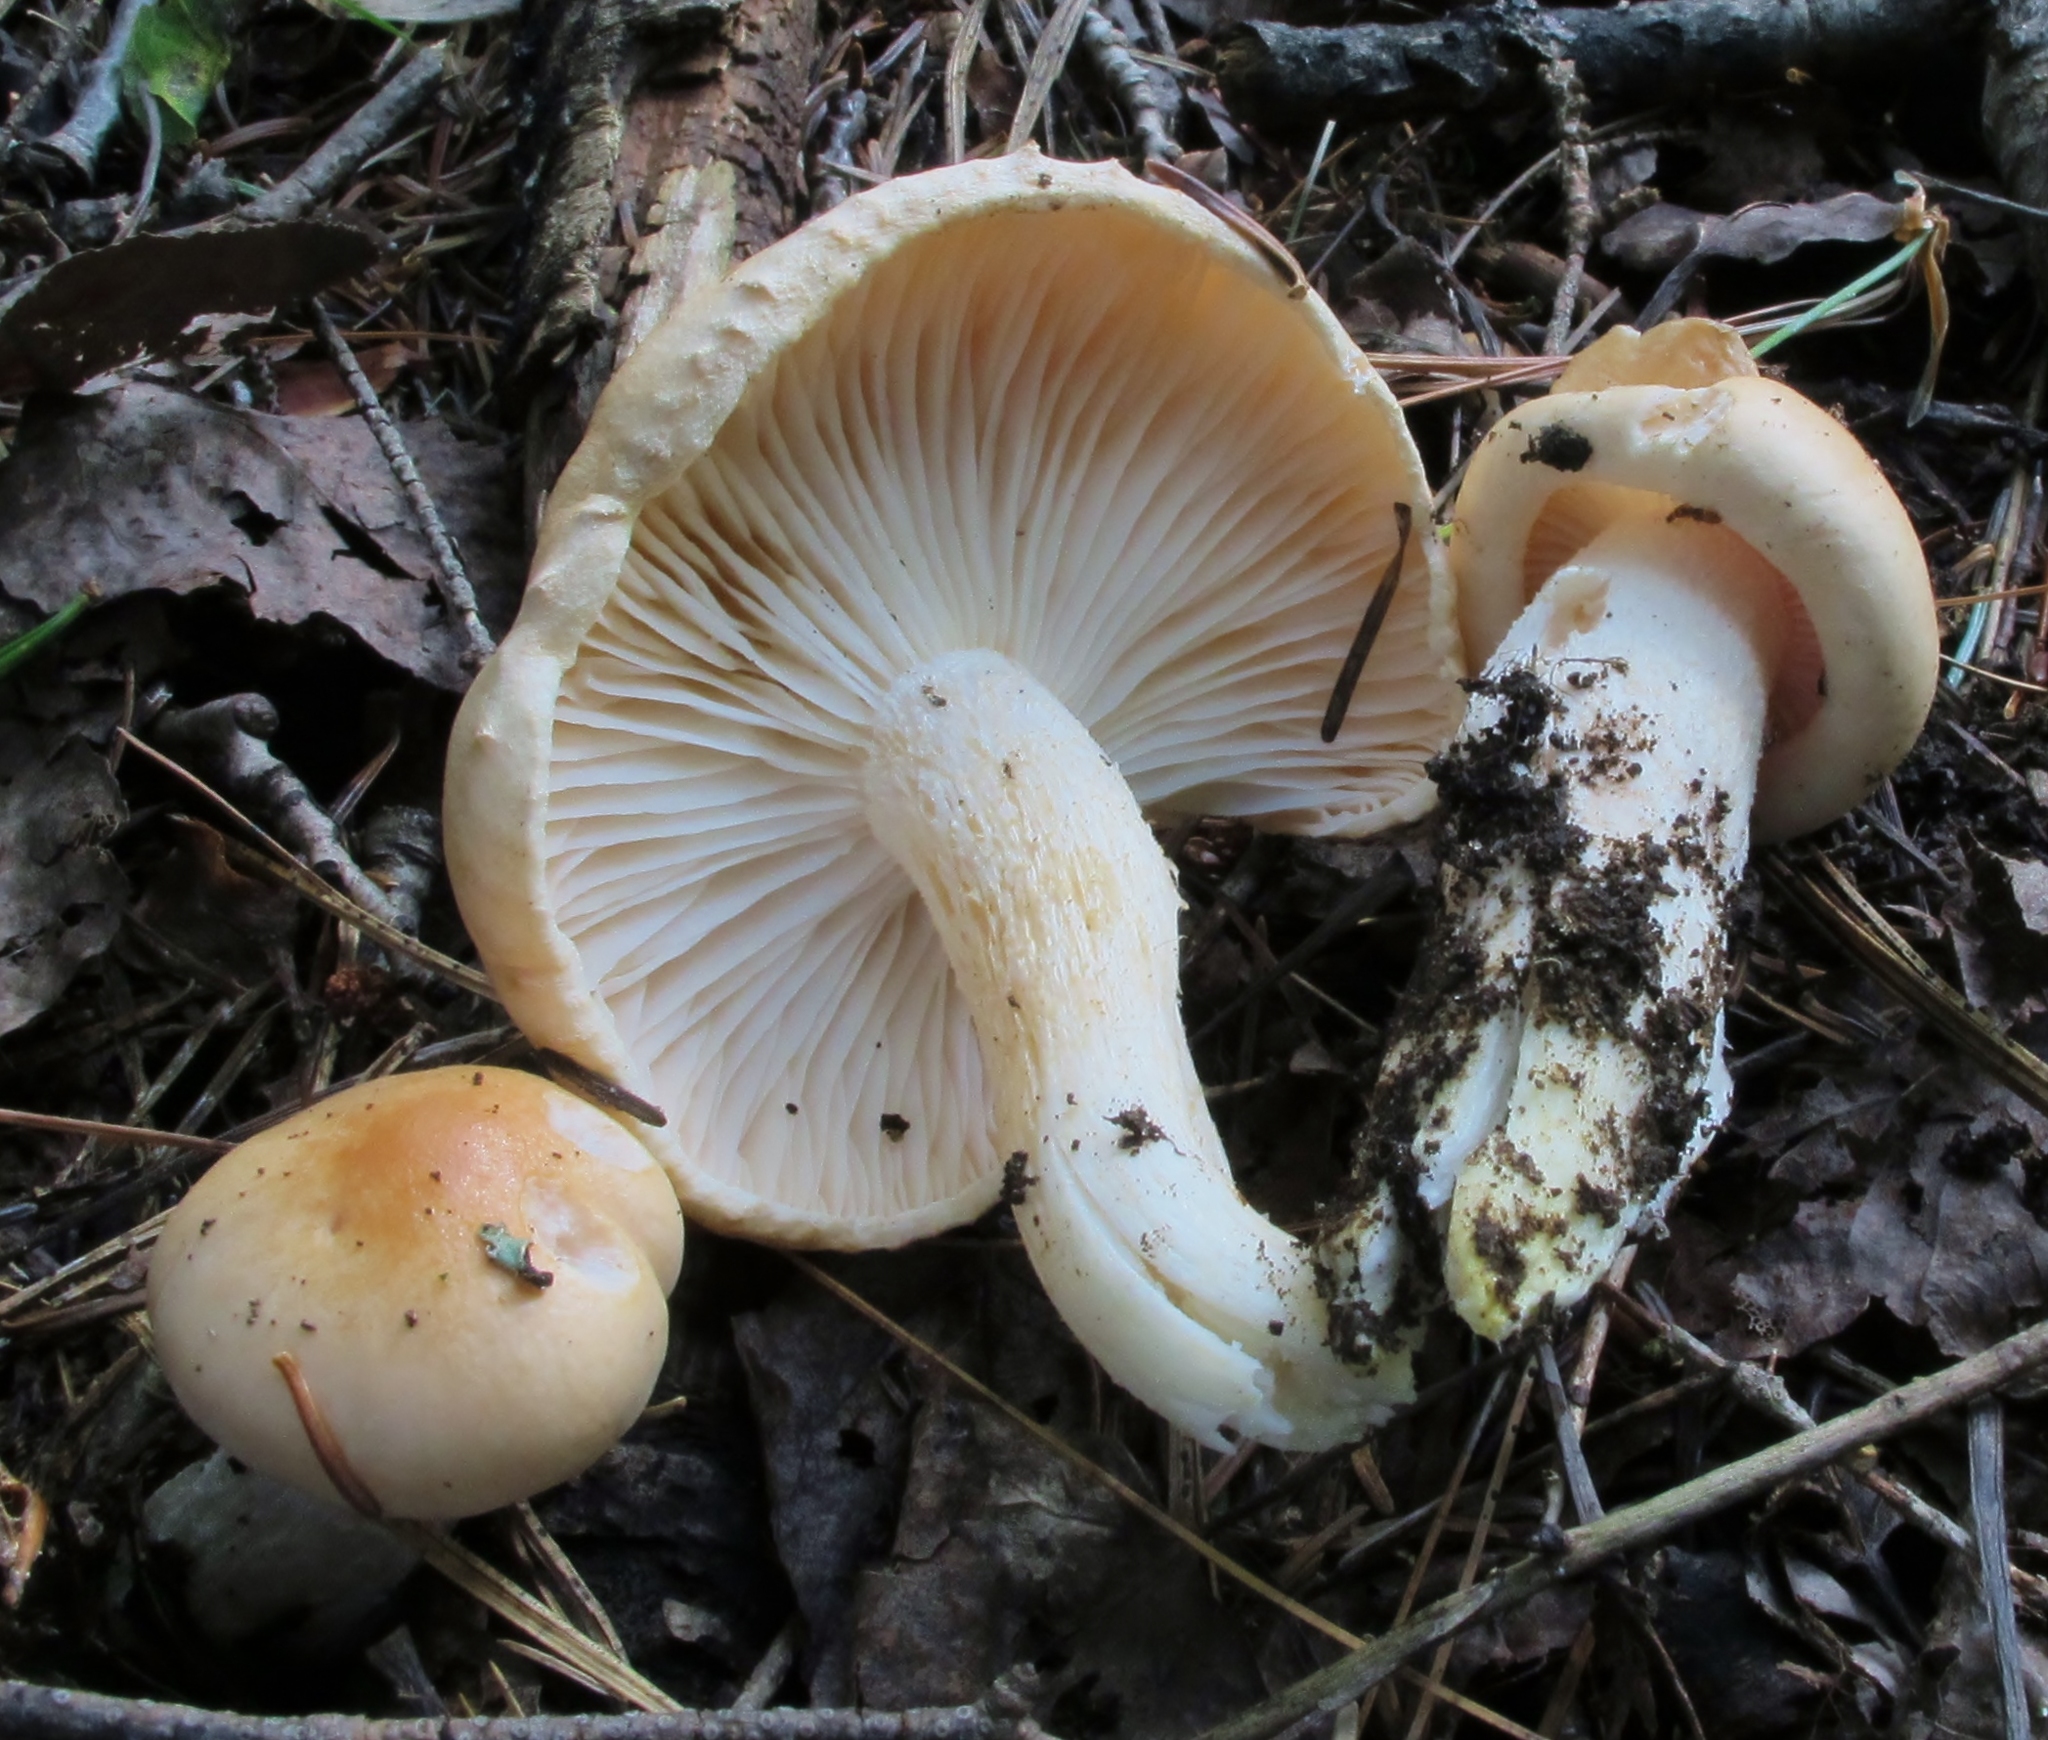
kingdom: Fungi
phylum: Basidiomycota
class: Agaricomycetes
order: Agaricales
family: Hygrophoraceae
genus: Hygrophorus
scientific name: Hygrophorus pudorinus
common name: Rosy woodwax
